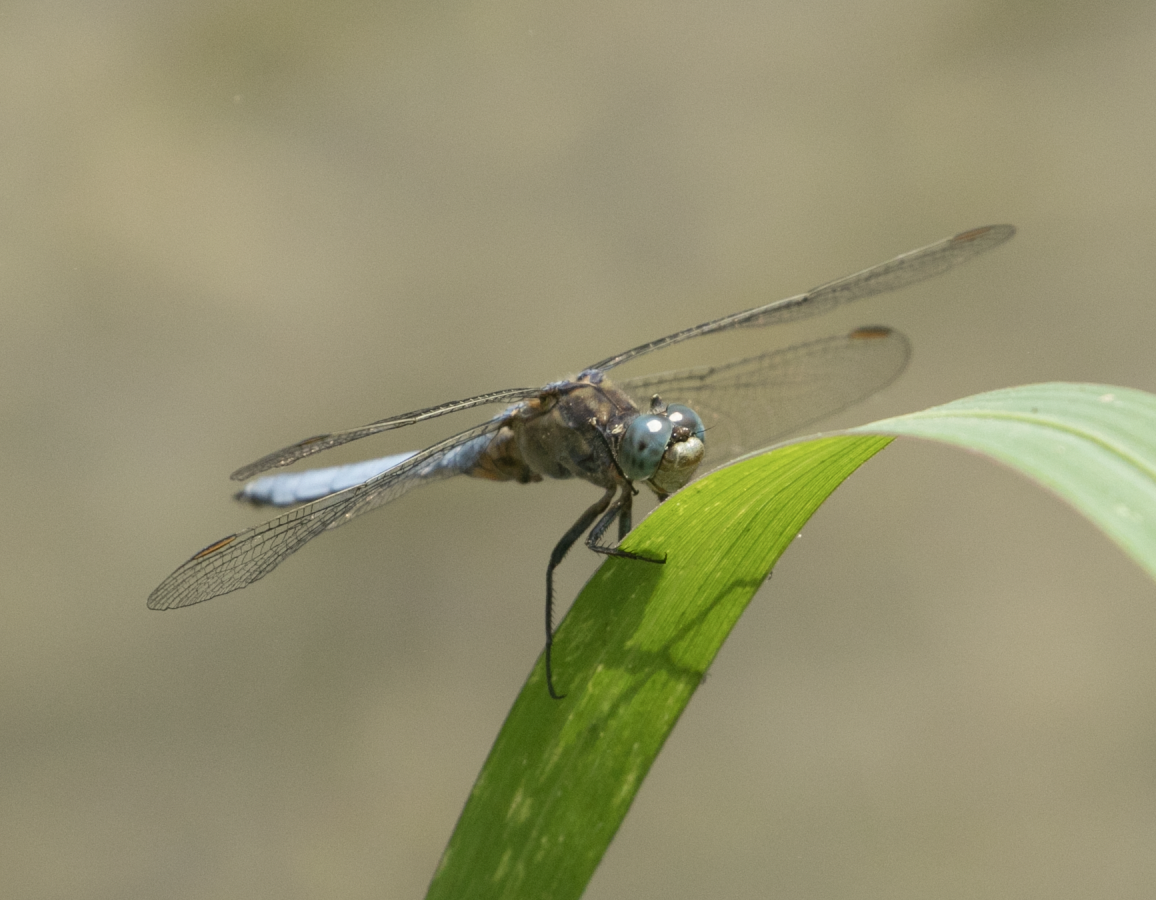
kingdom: Animalia
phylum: Arthropoda
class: Insecta
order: Odonata
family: Libellulidae
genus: Orthetrum
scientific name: Orthetrum coerulescens
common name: Keeled skimmer
